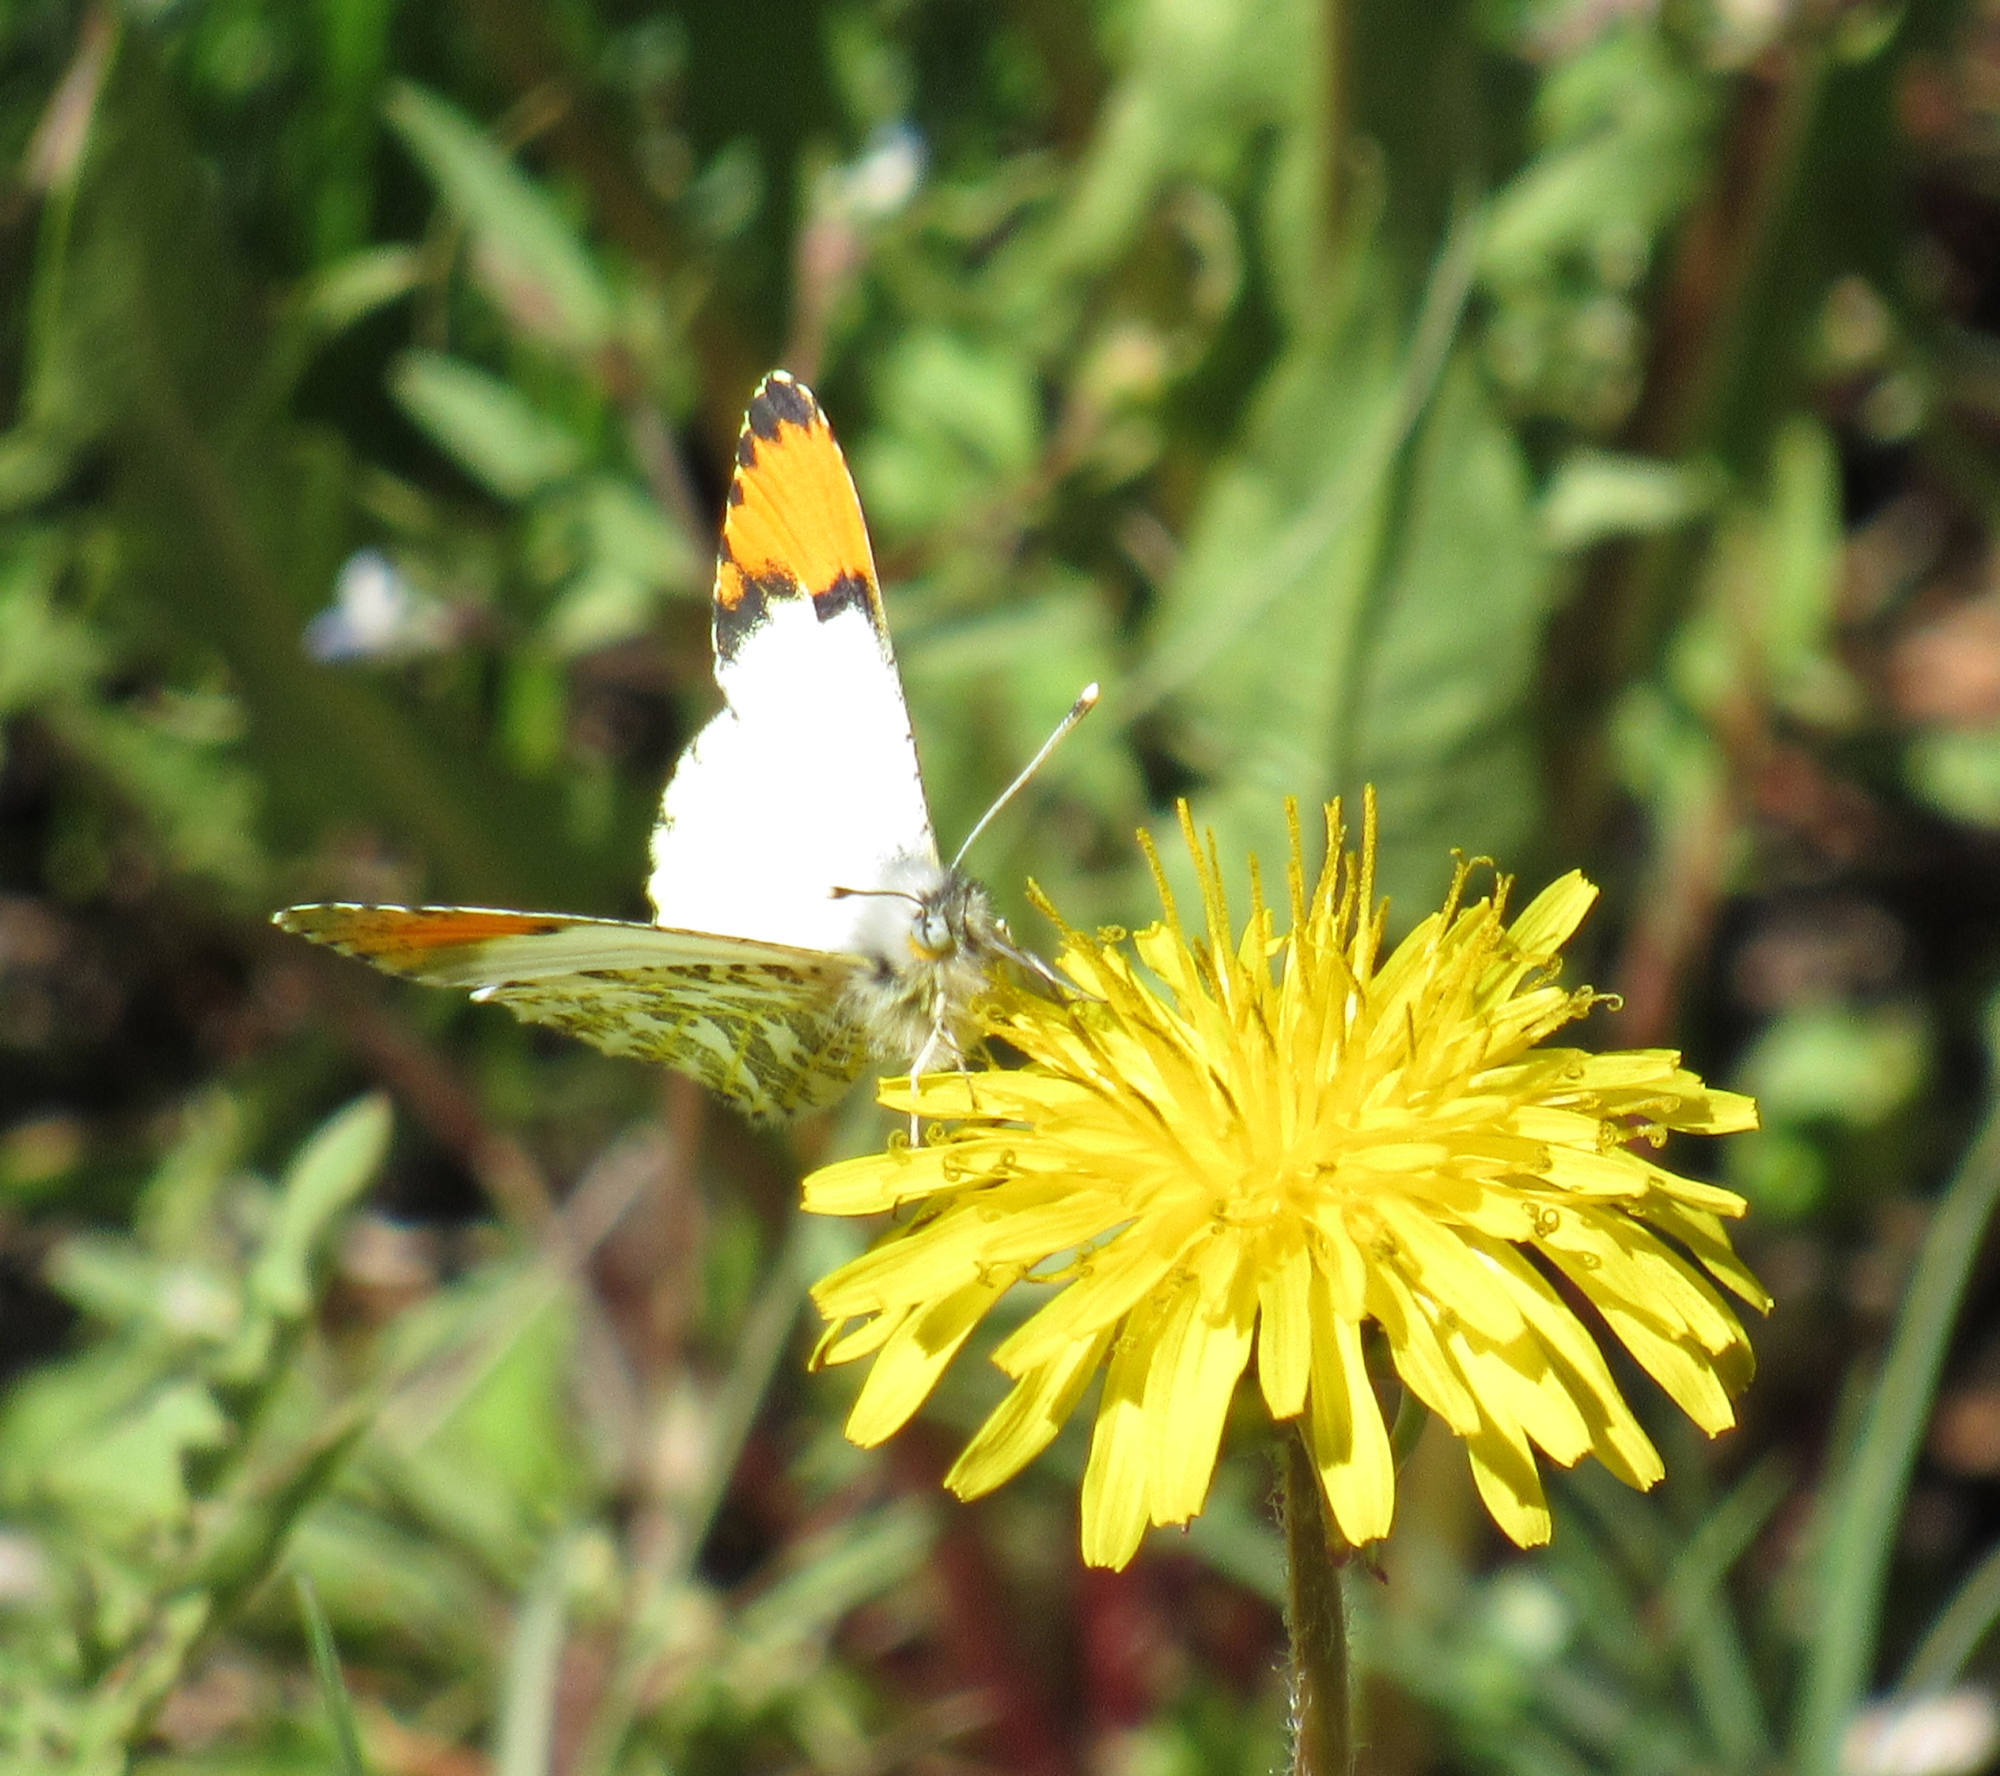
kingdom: Animalia
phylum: Arthropoda
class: Insecta
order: Lepidoptera
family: Pieridae
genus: Anthocharis
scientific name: Anthocharis julia
